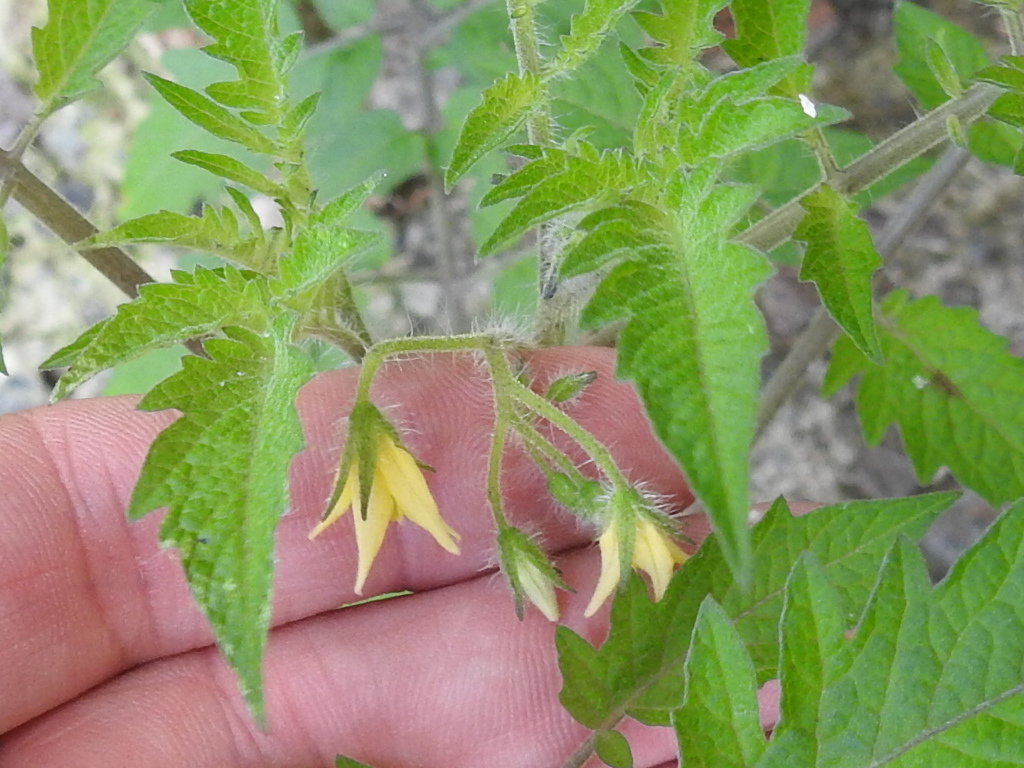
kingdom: Plantae
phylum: Tracheophyta
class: Magnoliopsida
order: Solanales
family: Solanaceae
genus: Solanum
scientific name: Solanum lycopersicum
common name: Garden tomato
